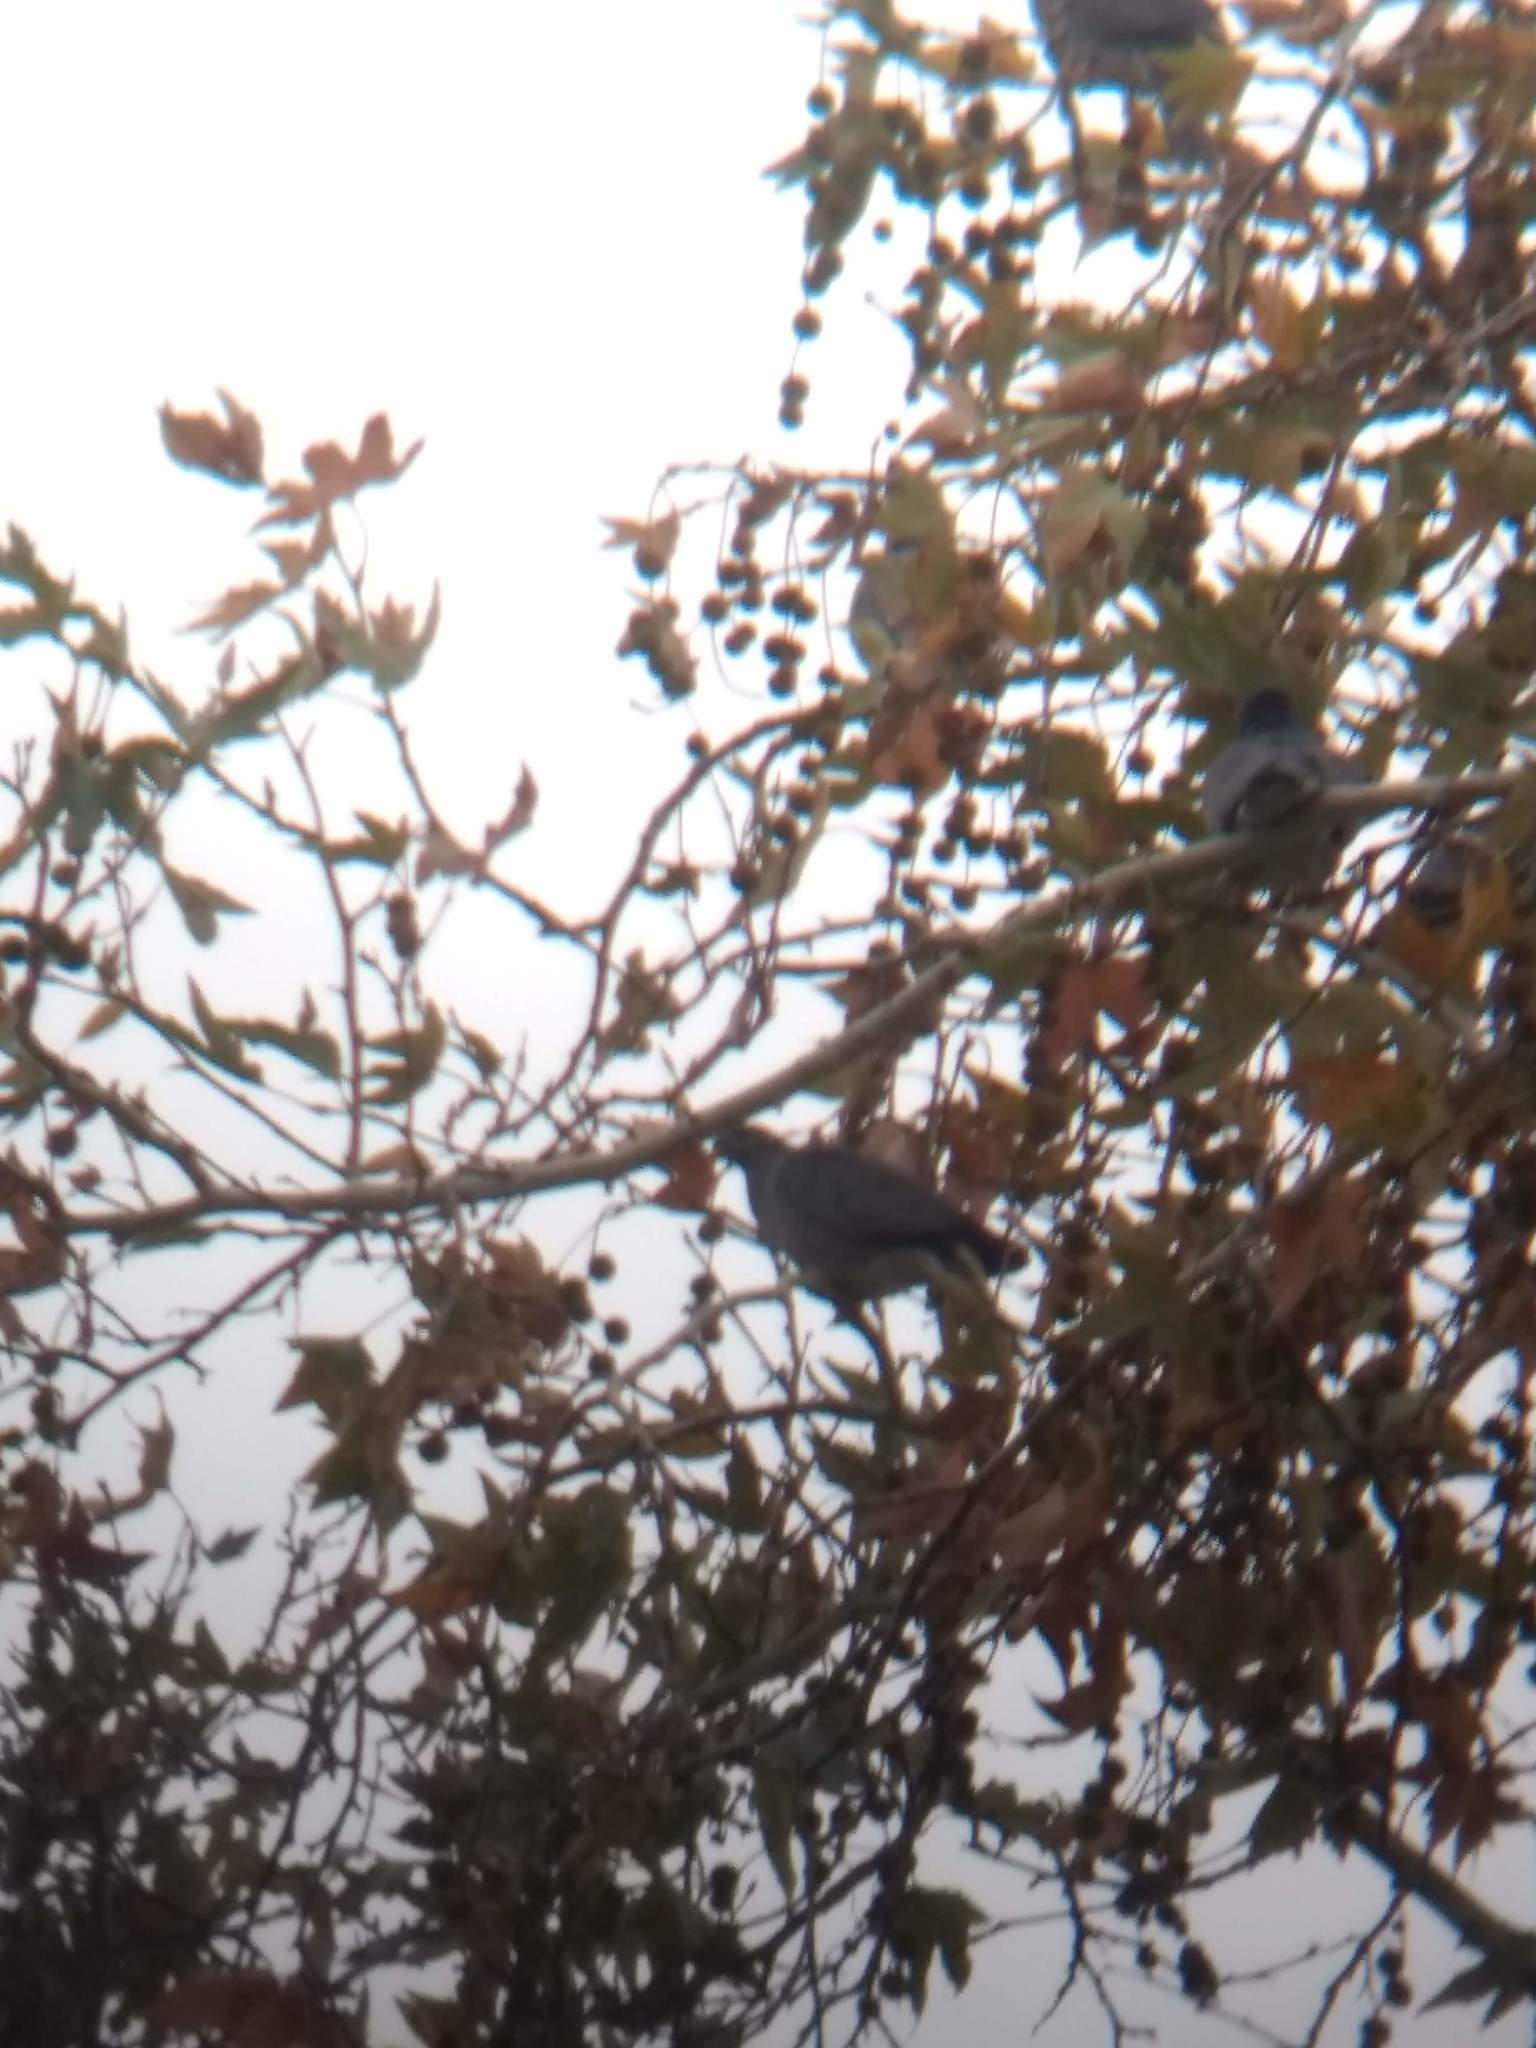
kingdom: Animalia
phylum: Chordata
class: Aves
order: Columbiformes
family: Columbidae
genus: Patagioenas
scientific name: Patagioenas fasciata
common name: Band-tailed pigeon
